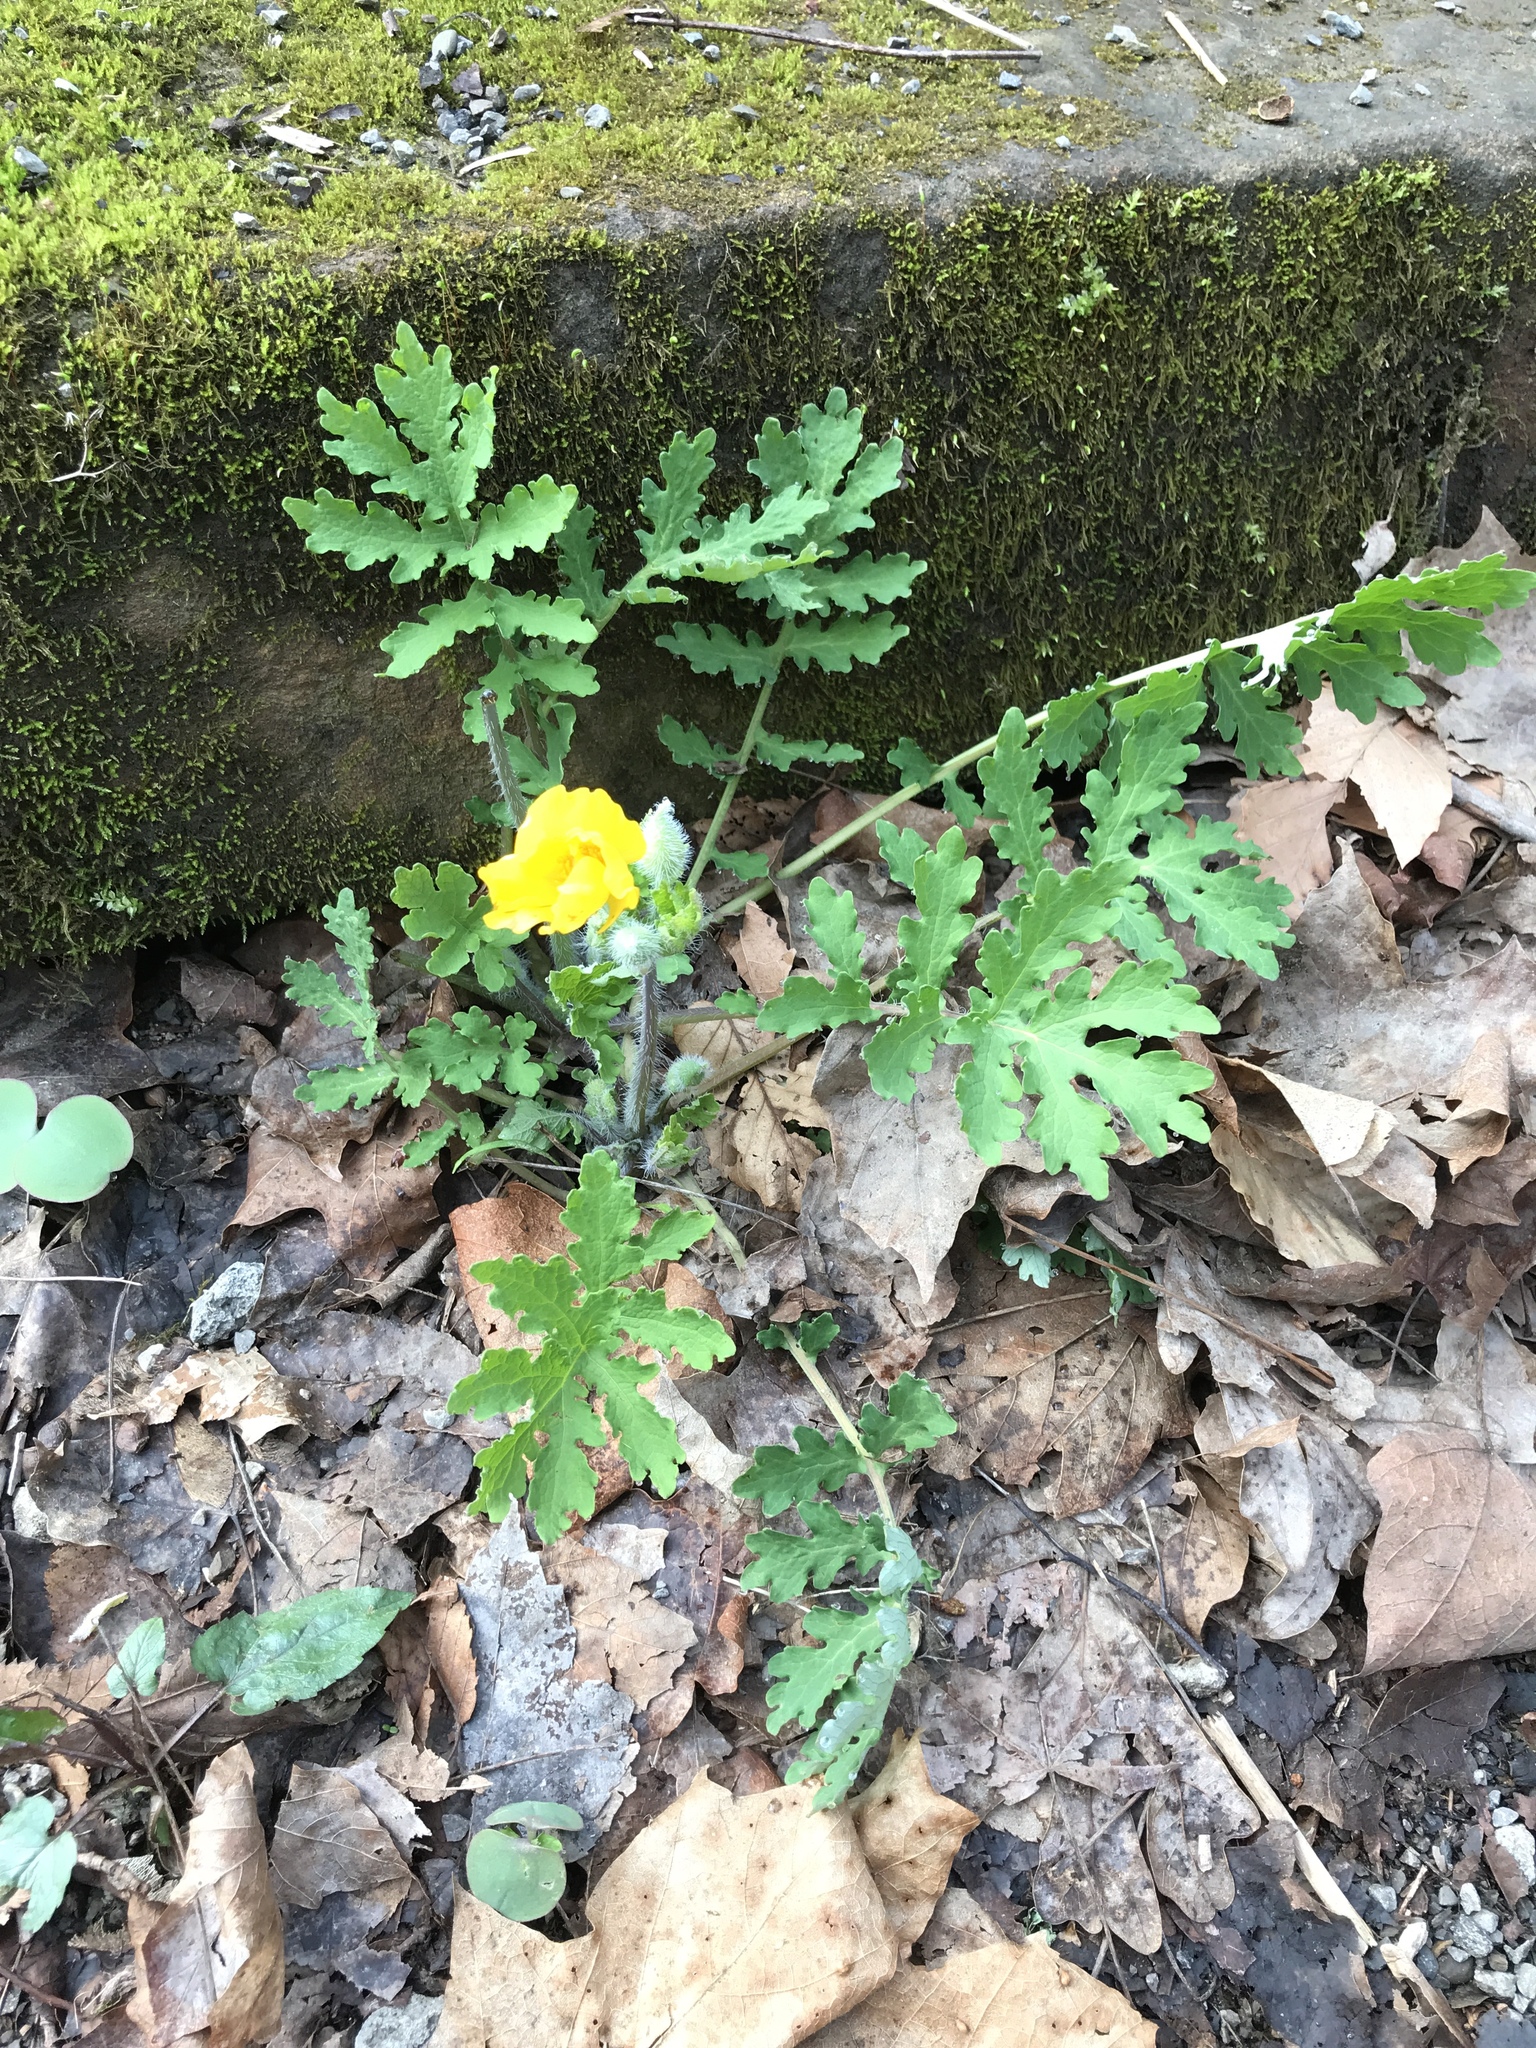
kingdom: Plantae
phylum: Tracheophyta
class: Magnoliopsida
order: Ranunculales
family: Papaveraceae
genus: Stylophorum
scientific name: Stylophorum diphyllum
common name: Celandine poppy
